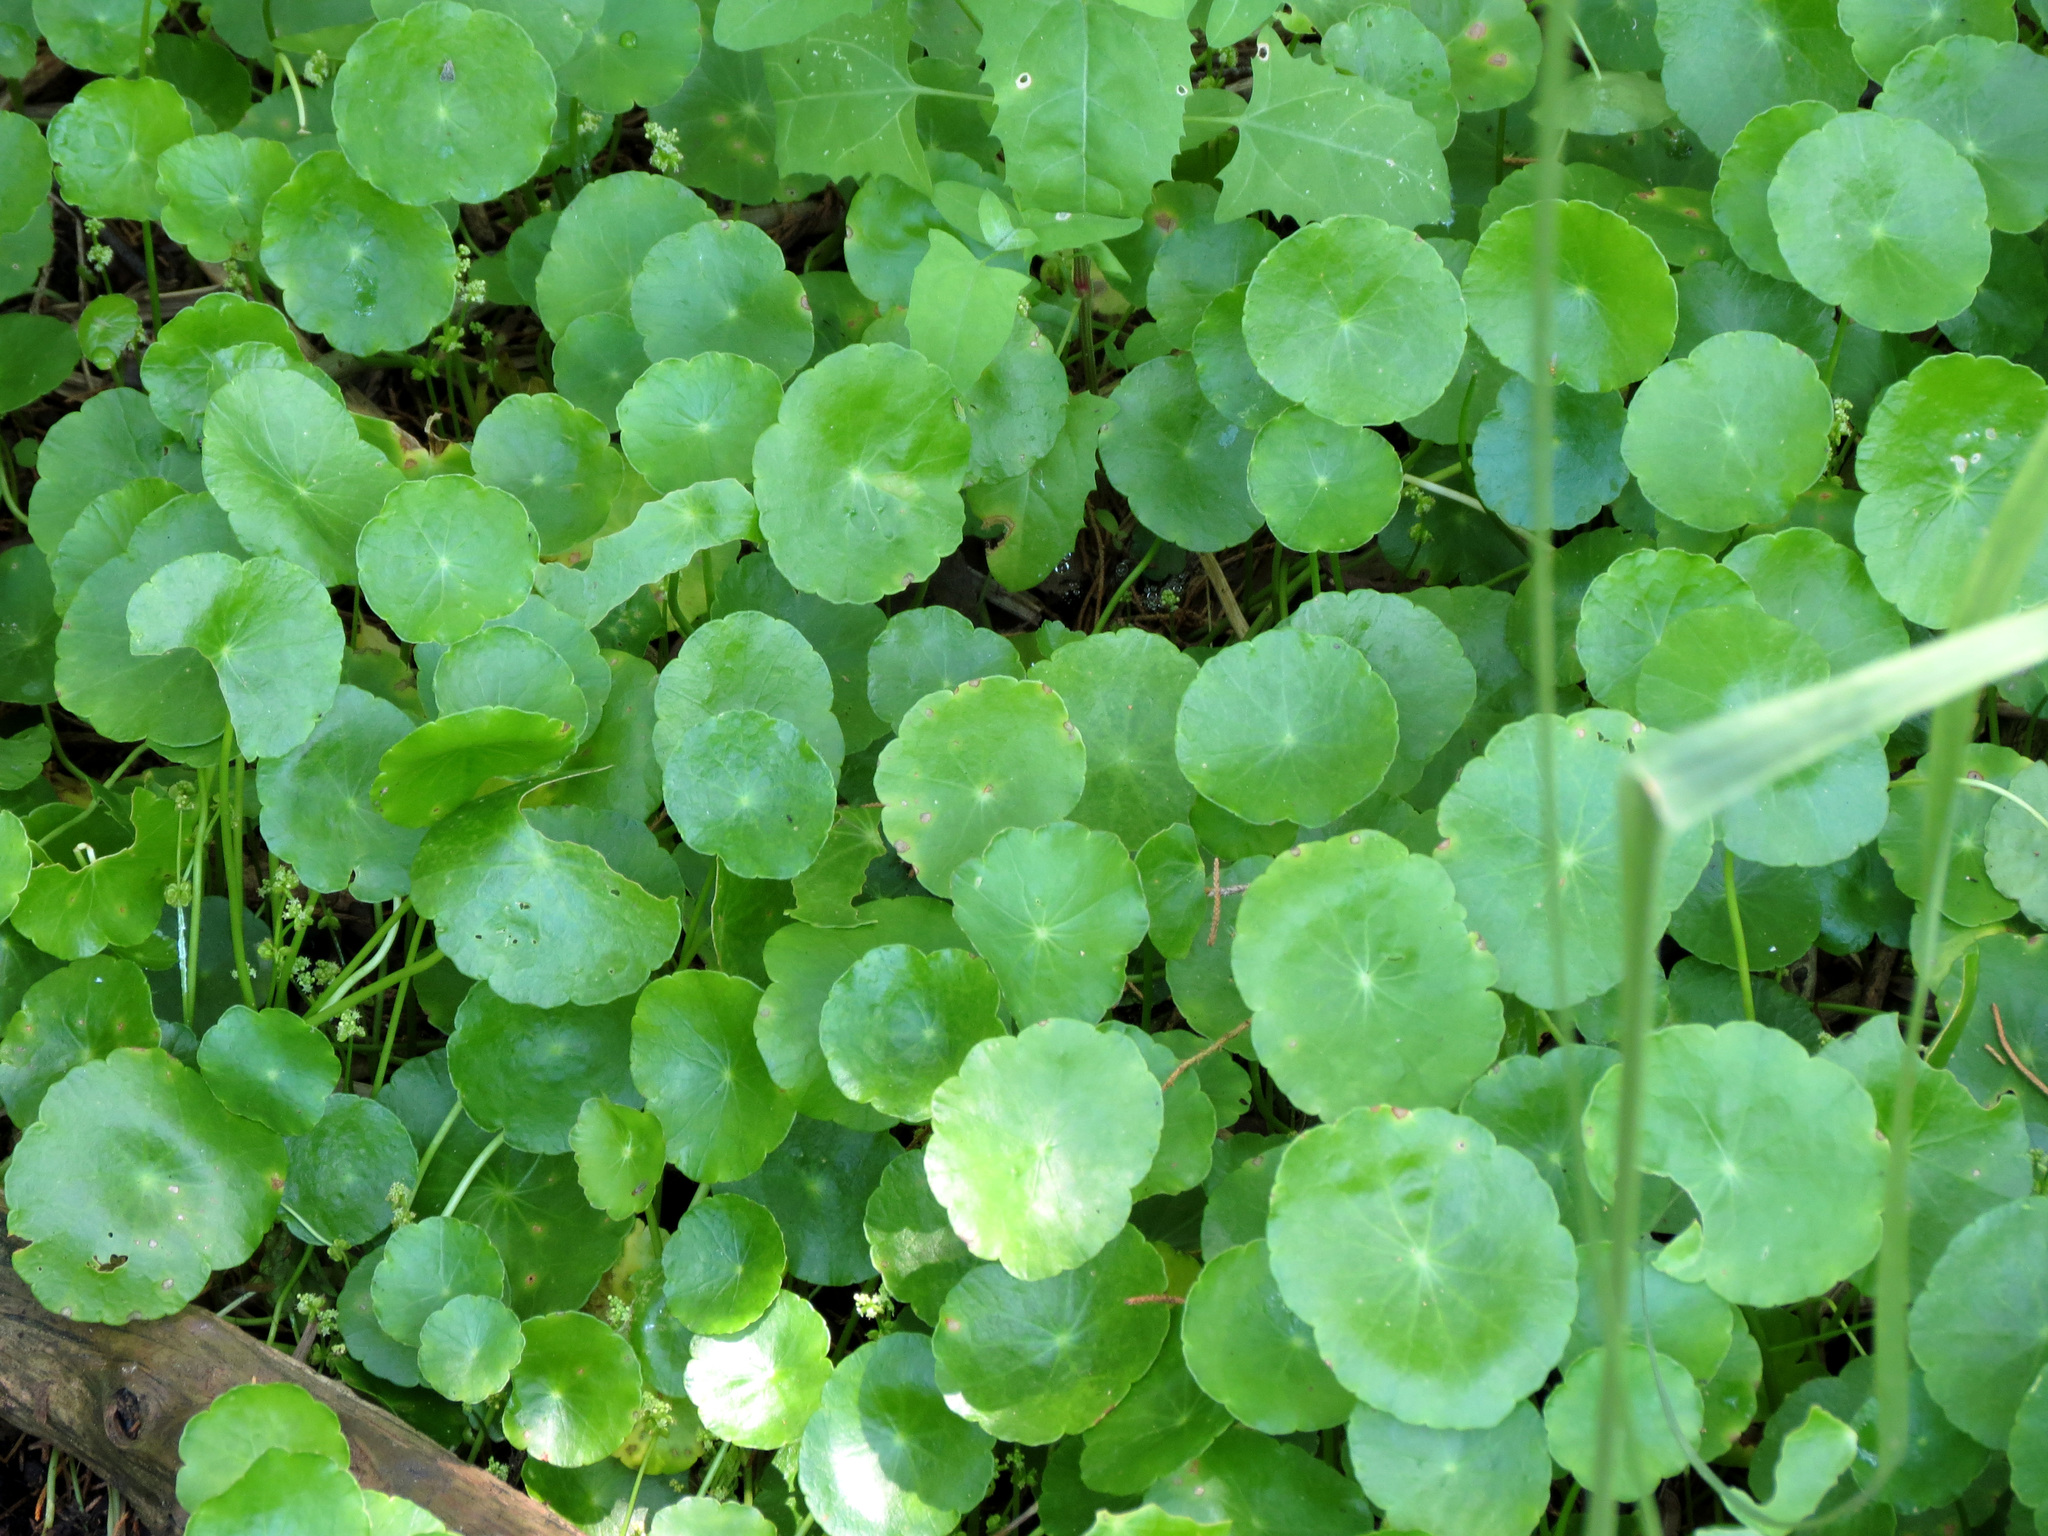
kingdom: Plantae
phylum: Tracheophyta
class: Magnoliopsida
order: Apiales
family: Araliaceae
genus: Hydrocotyle
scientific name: Hydrocotyle verticillata
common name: Whorled marshpennywort
